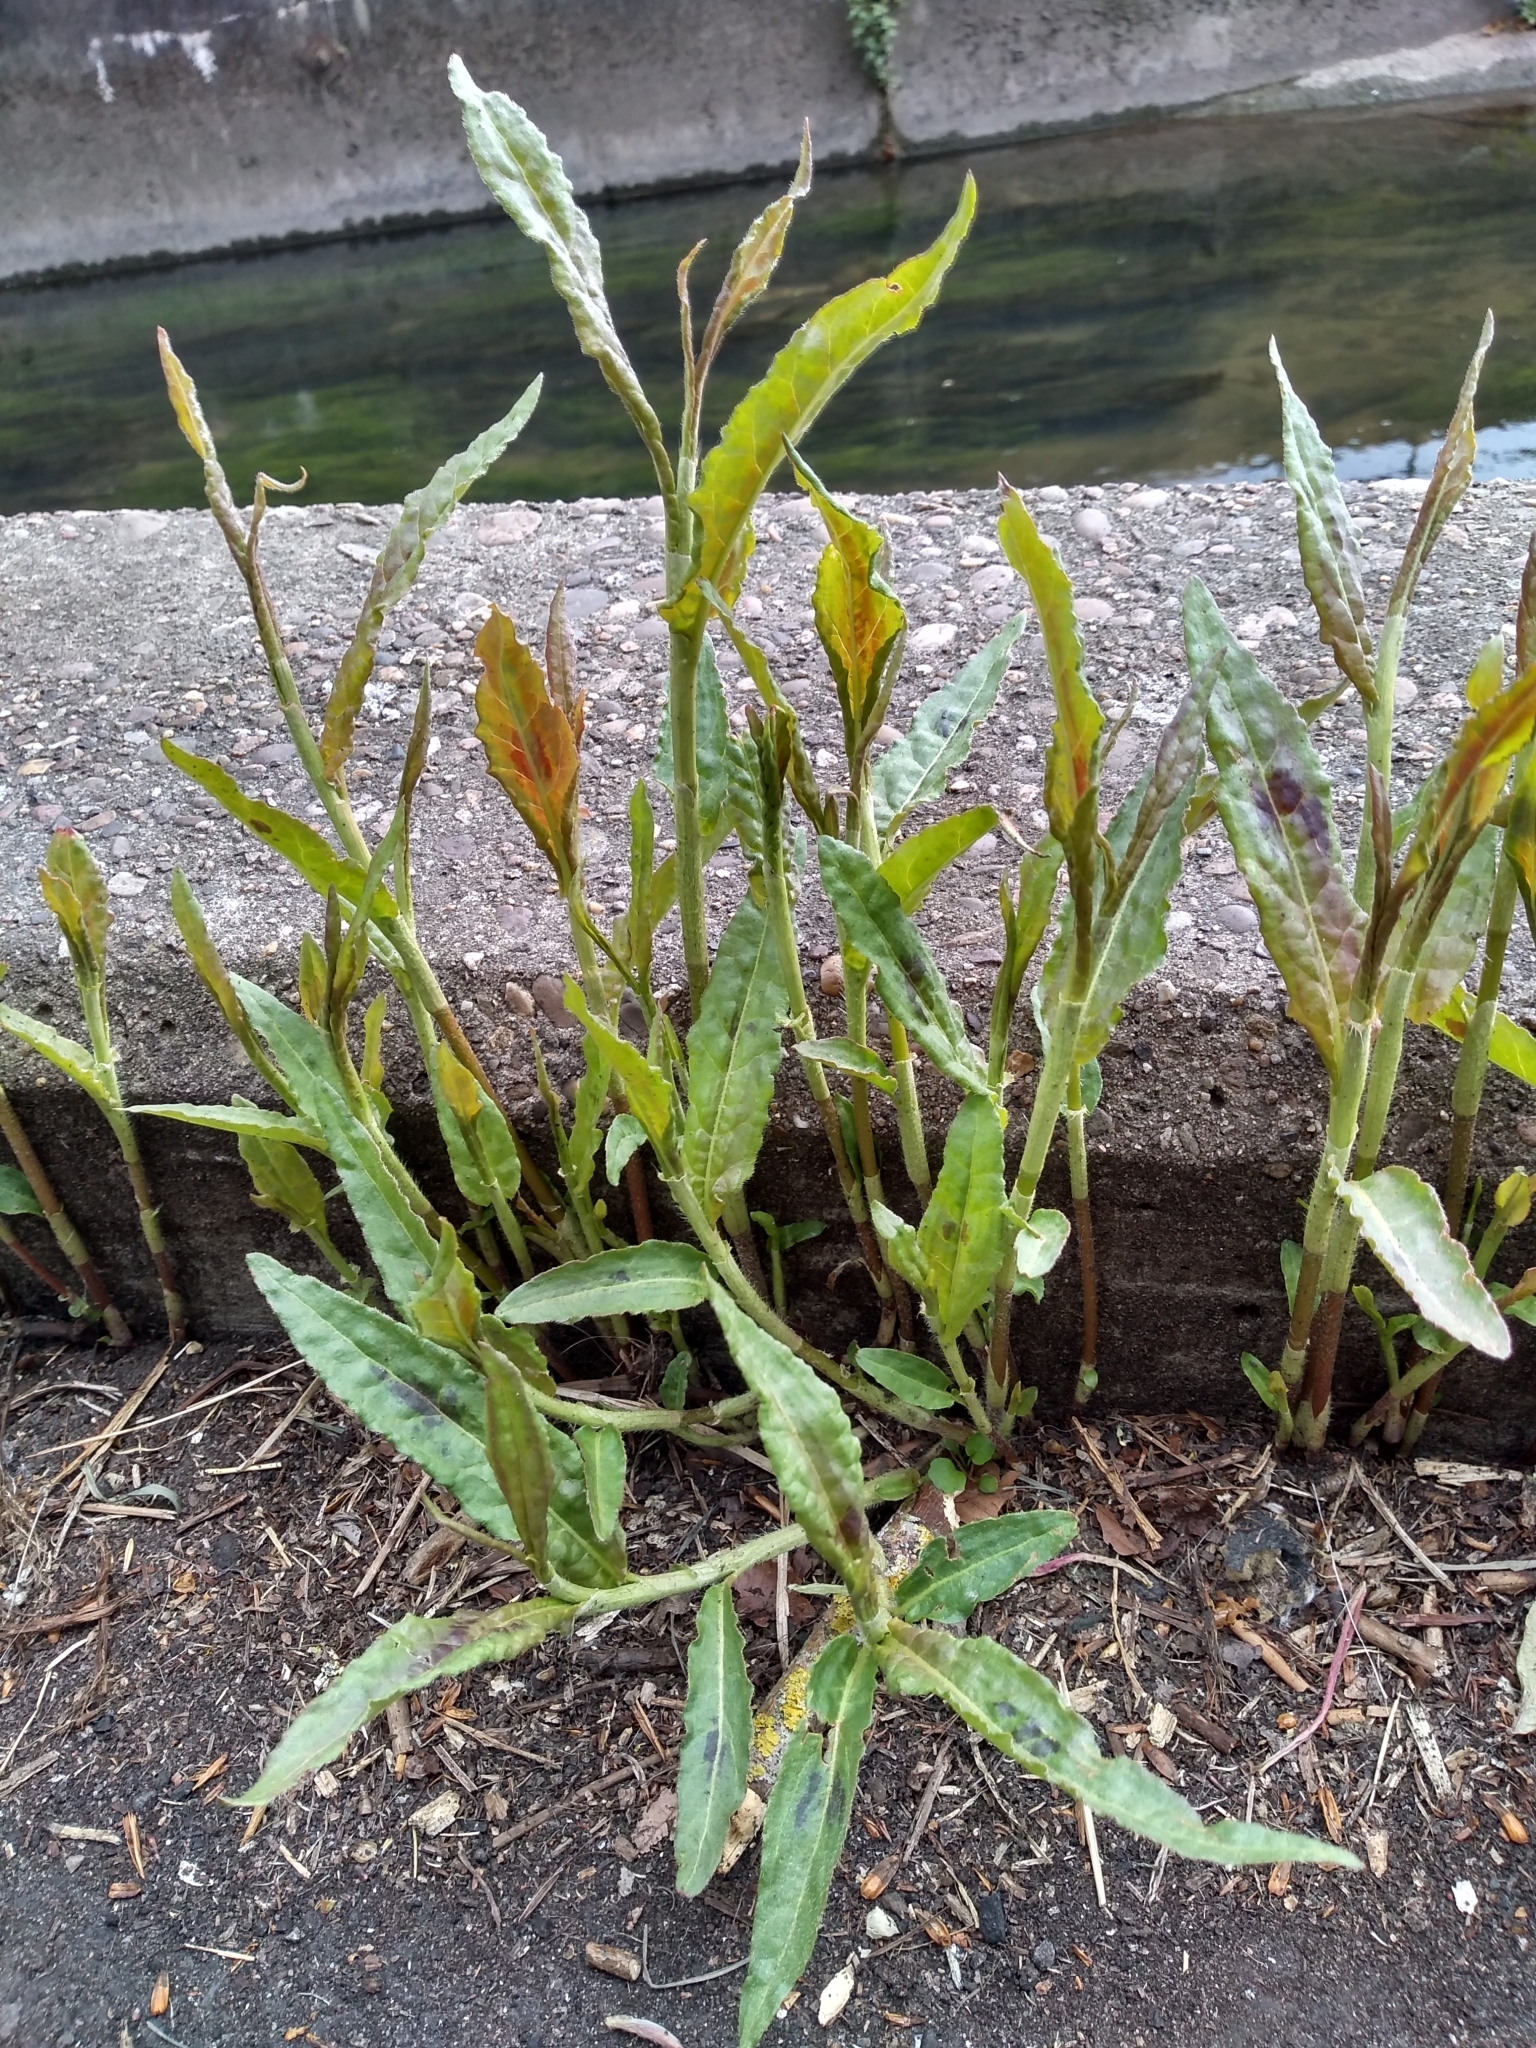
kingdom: Plantae
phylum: Tracheophyta
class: Magnoliopsida
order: Caryophyllales
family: Polygonaceae
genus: Persicaria
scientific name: Persicaria maculosa
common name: Redshank
